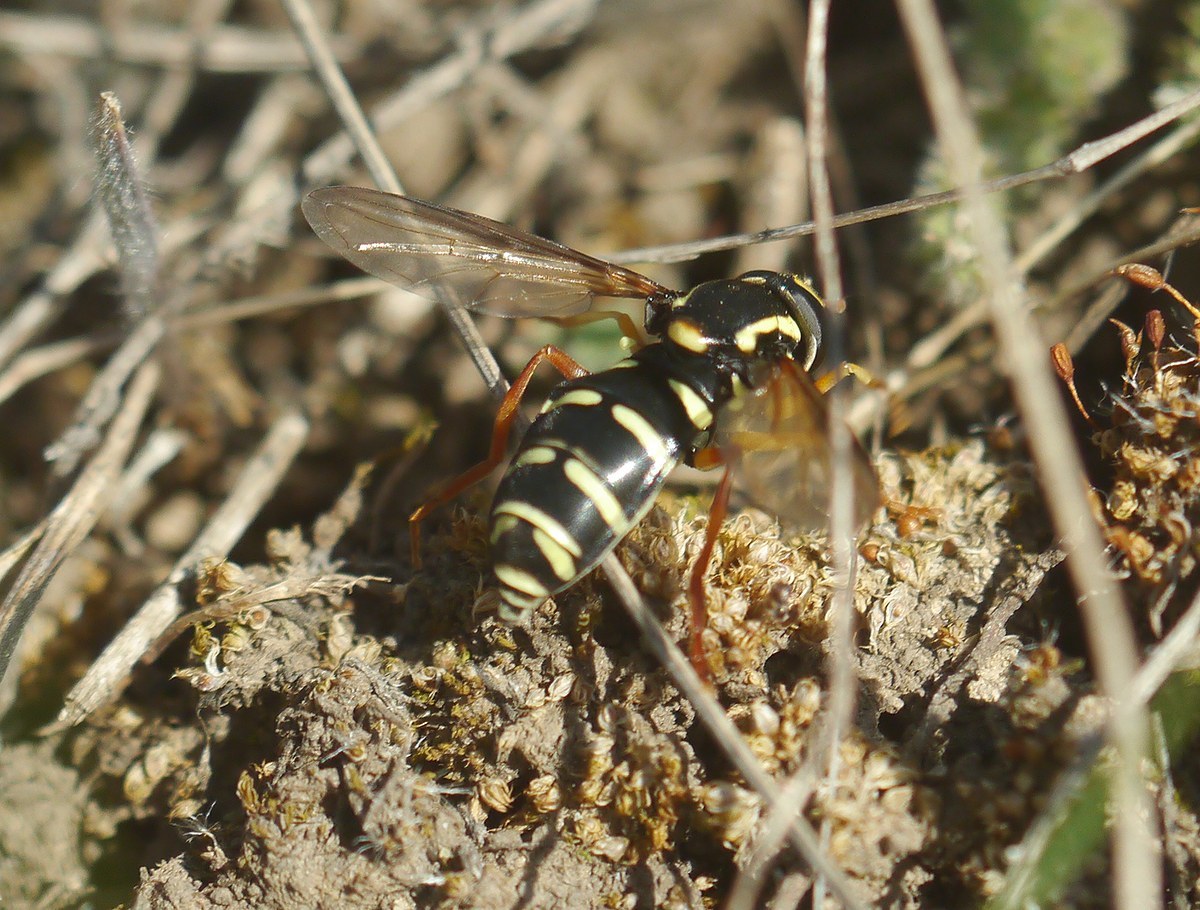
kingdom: Animalia
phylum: Arthropoda
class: Insecta
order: Diptera
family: Syrphidae
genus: Philhelius
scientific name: Philhelius citrofasciata
